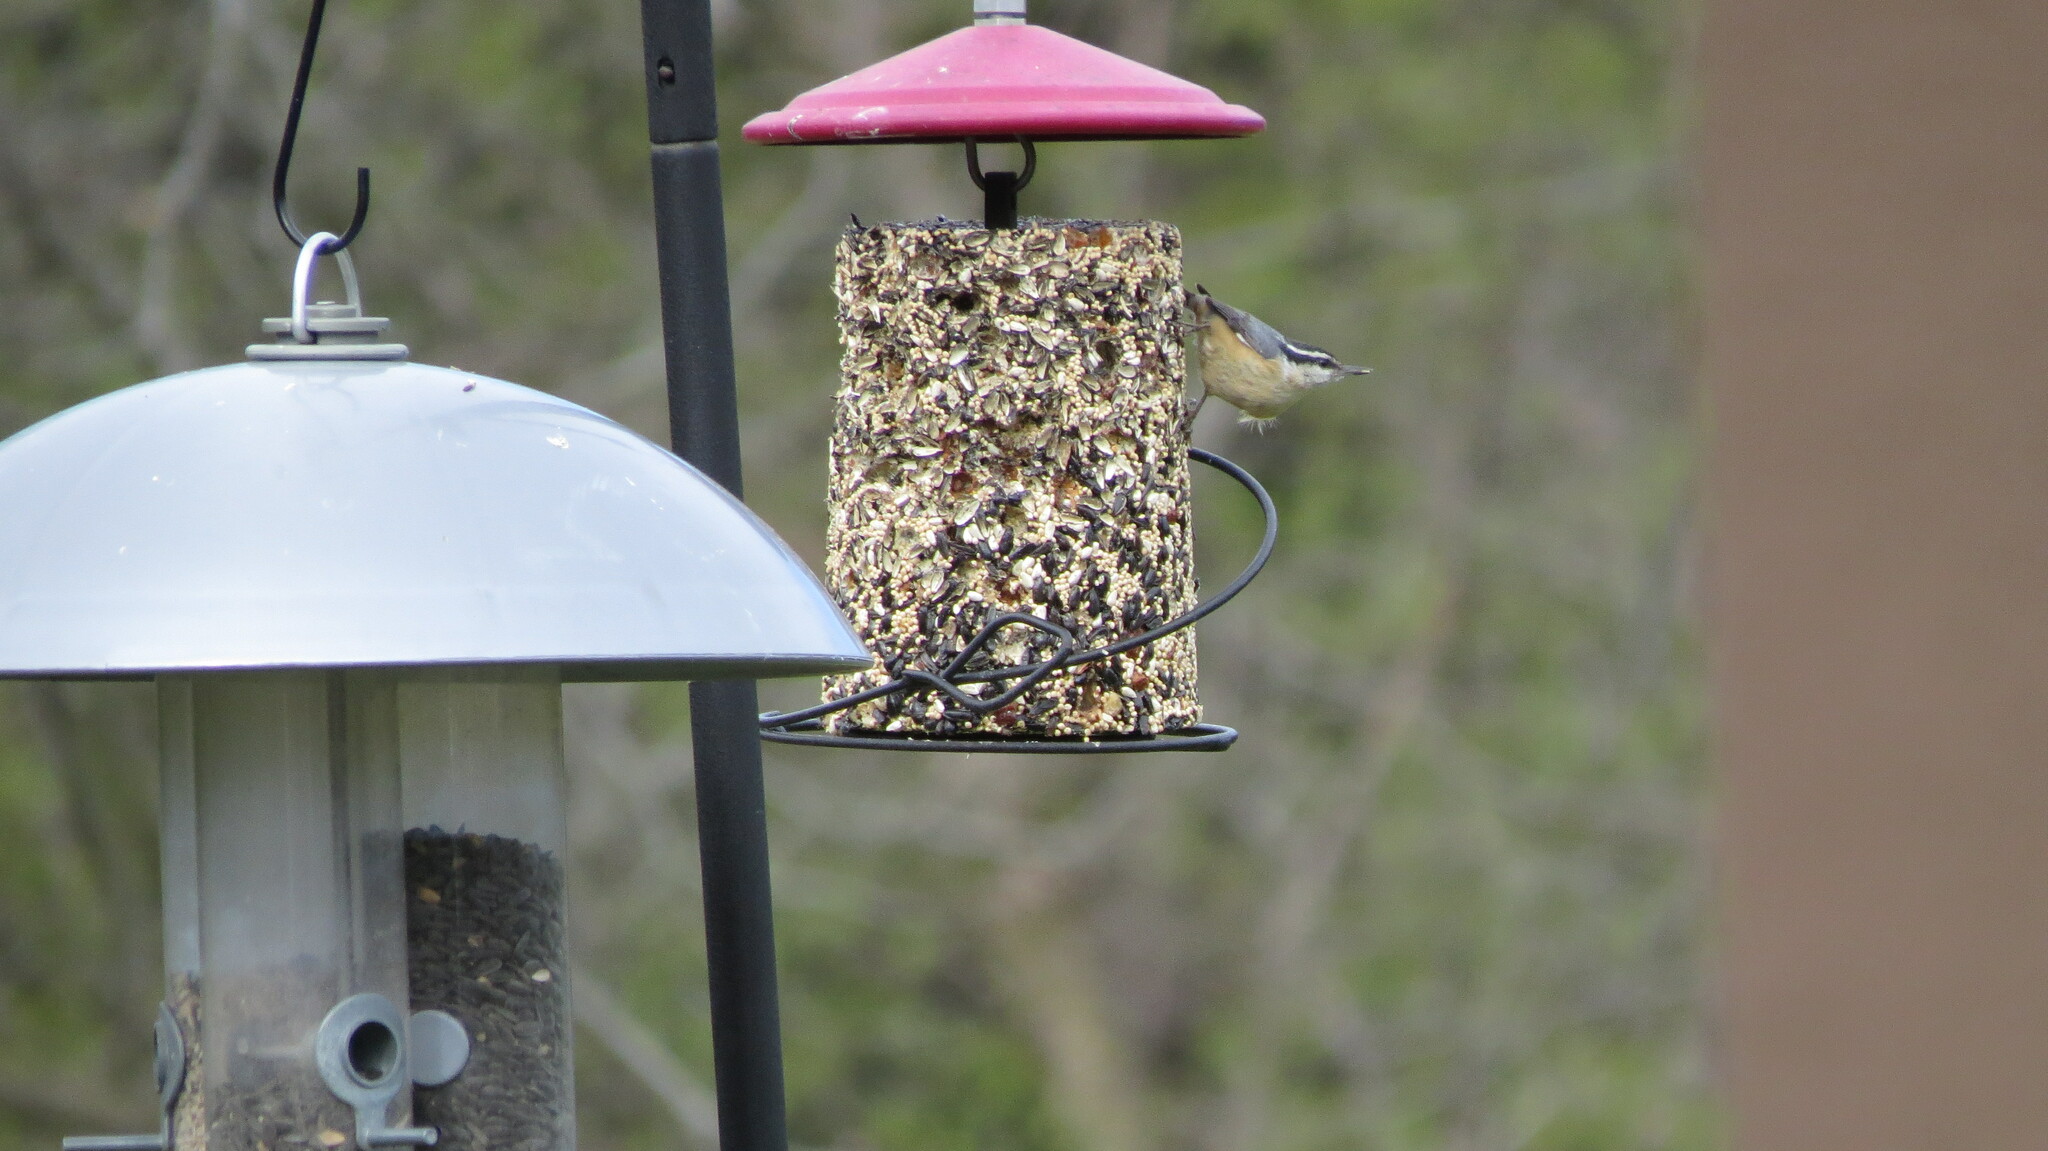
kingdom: Animalia
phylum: Chordata
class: Aves
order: Passeriformes
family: Sittidae
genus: Sitta
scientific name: Sitta canadensis
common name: Red-breasted nuthatch
